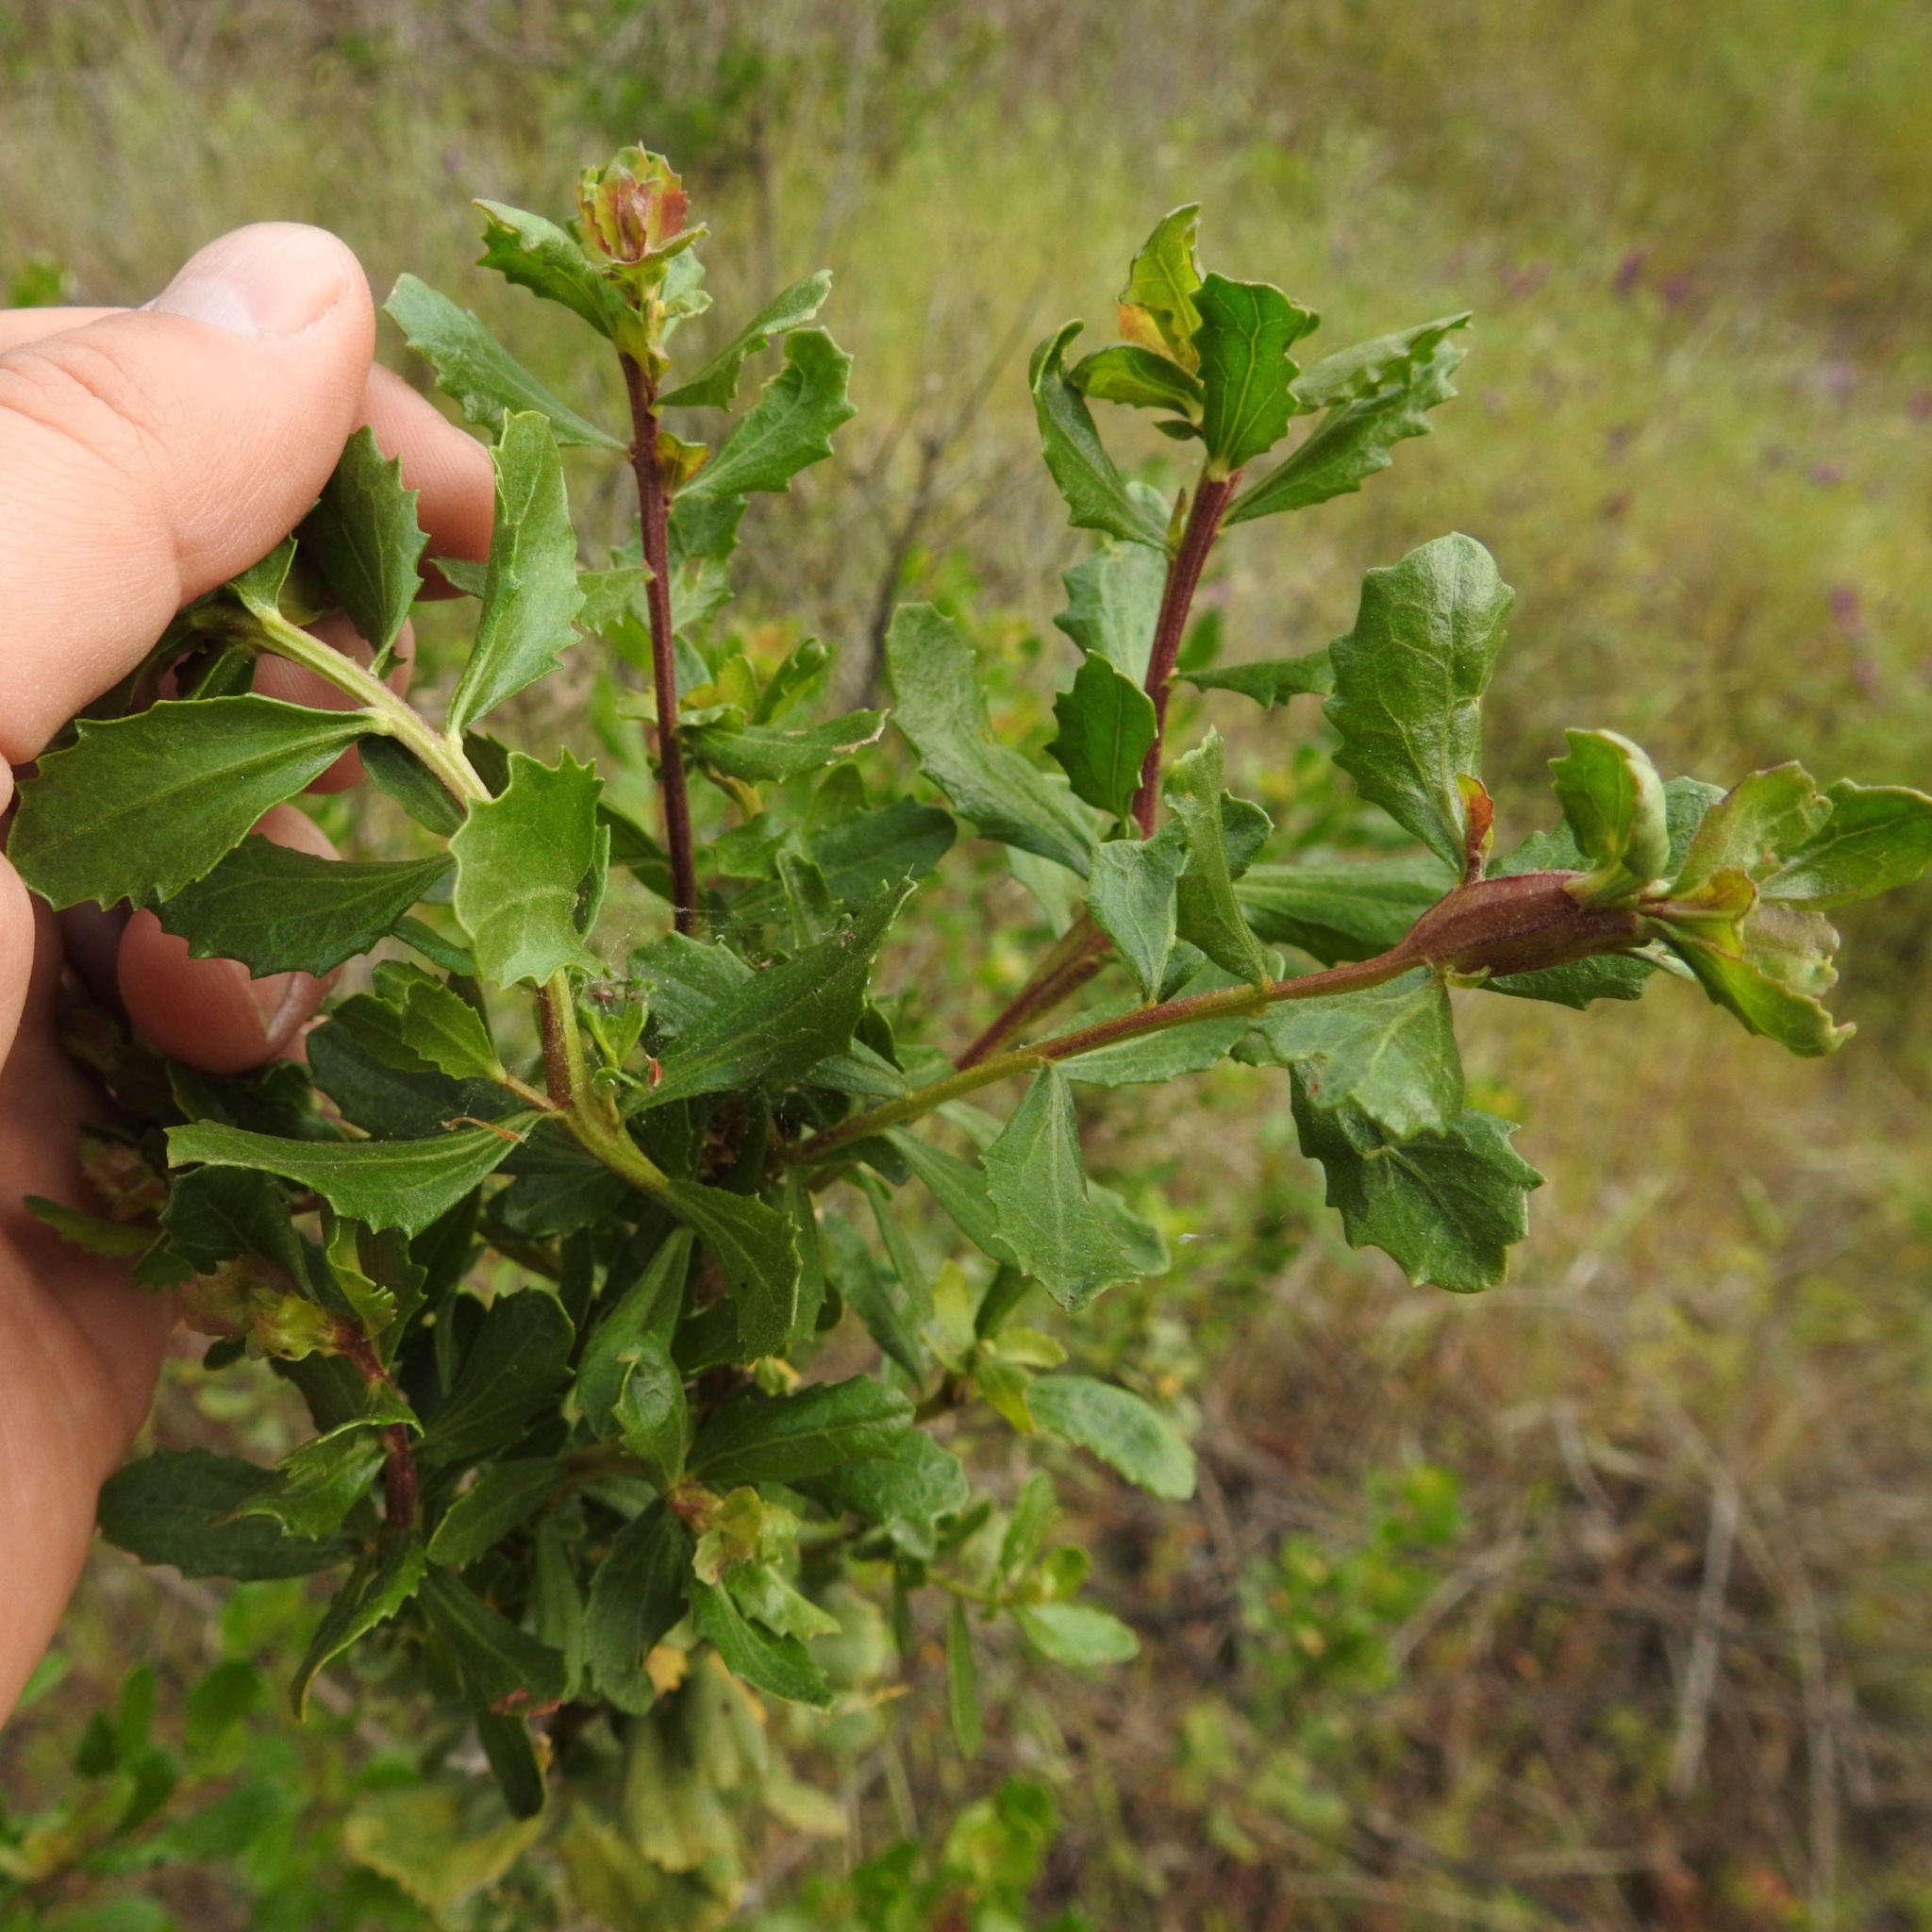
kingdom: Animalia
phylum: Arthropoda
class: Insecta
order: Lepidoptera
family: Gelechiidae
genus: Gnorimoschema
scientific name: Gnorimoschema baccharisella
